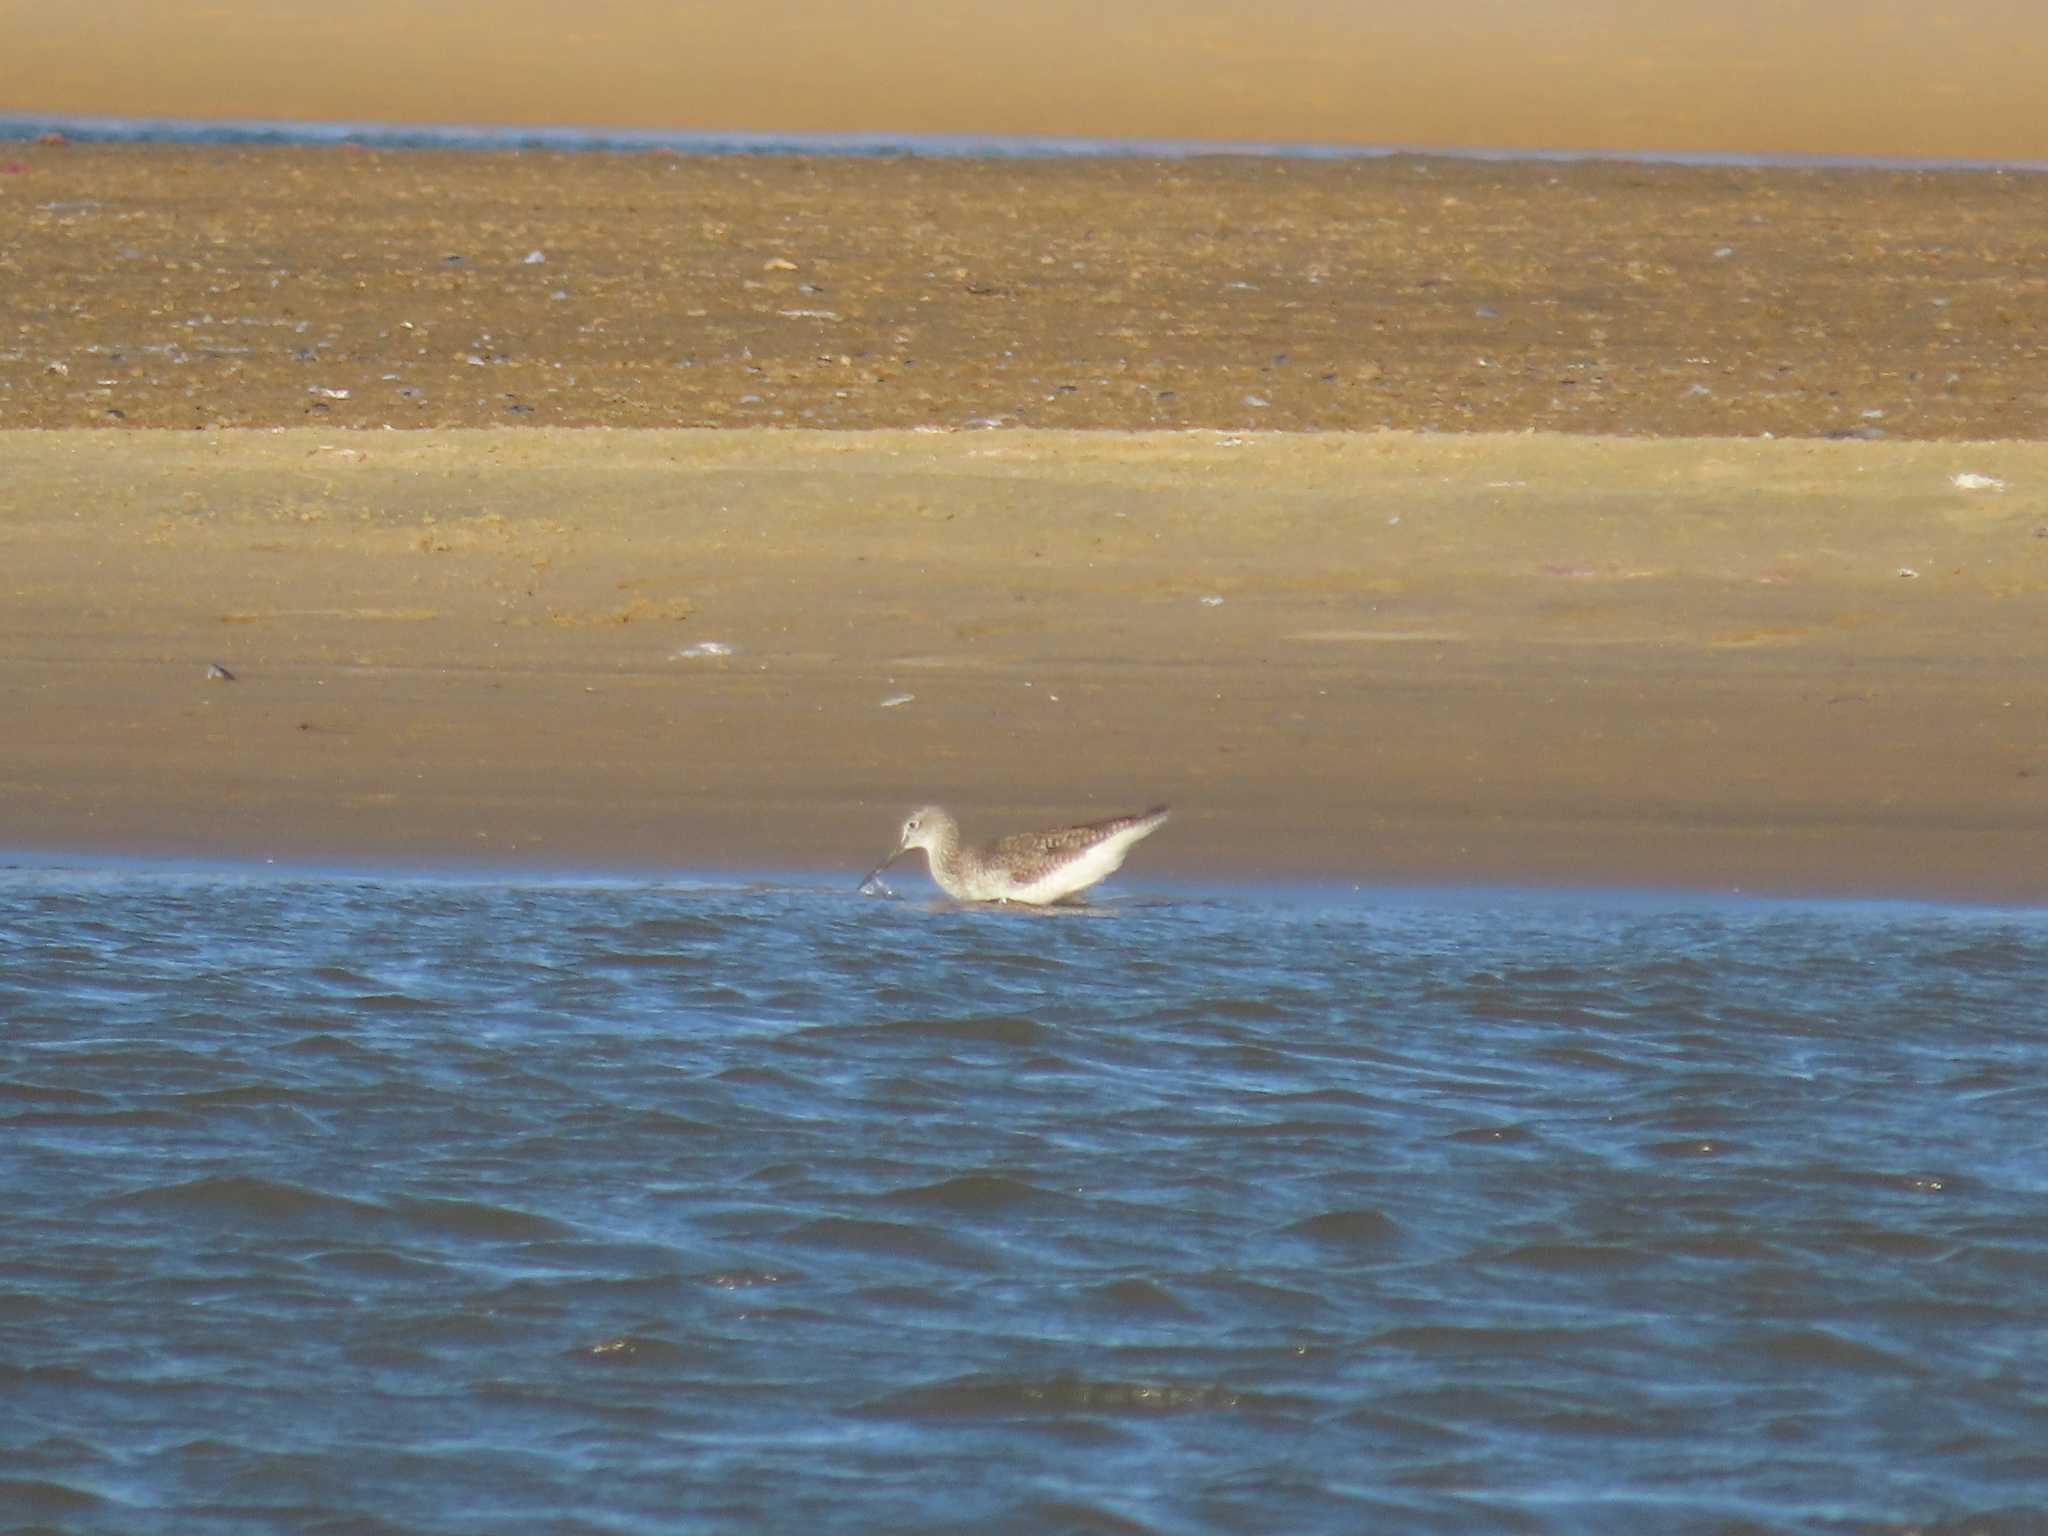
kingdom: Animalia
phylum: Chordata
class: Aves
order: Charadriiformes
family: Scolopacidae
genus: Tringa
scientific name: Tringa melanoleuca
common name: Greater yellowlegs
